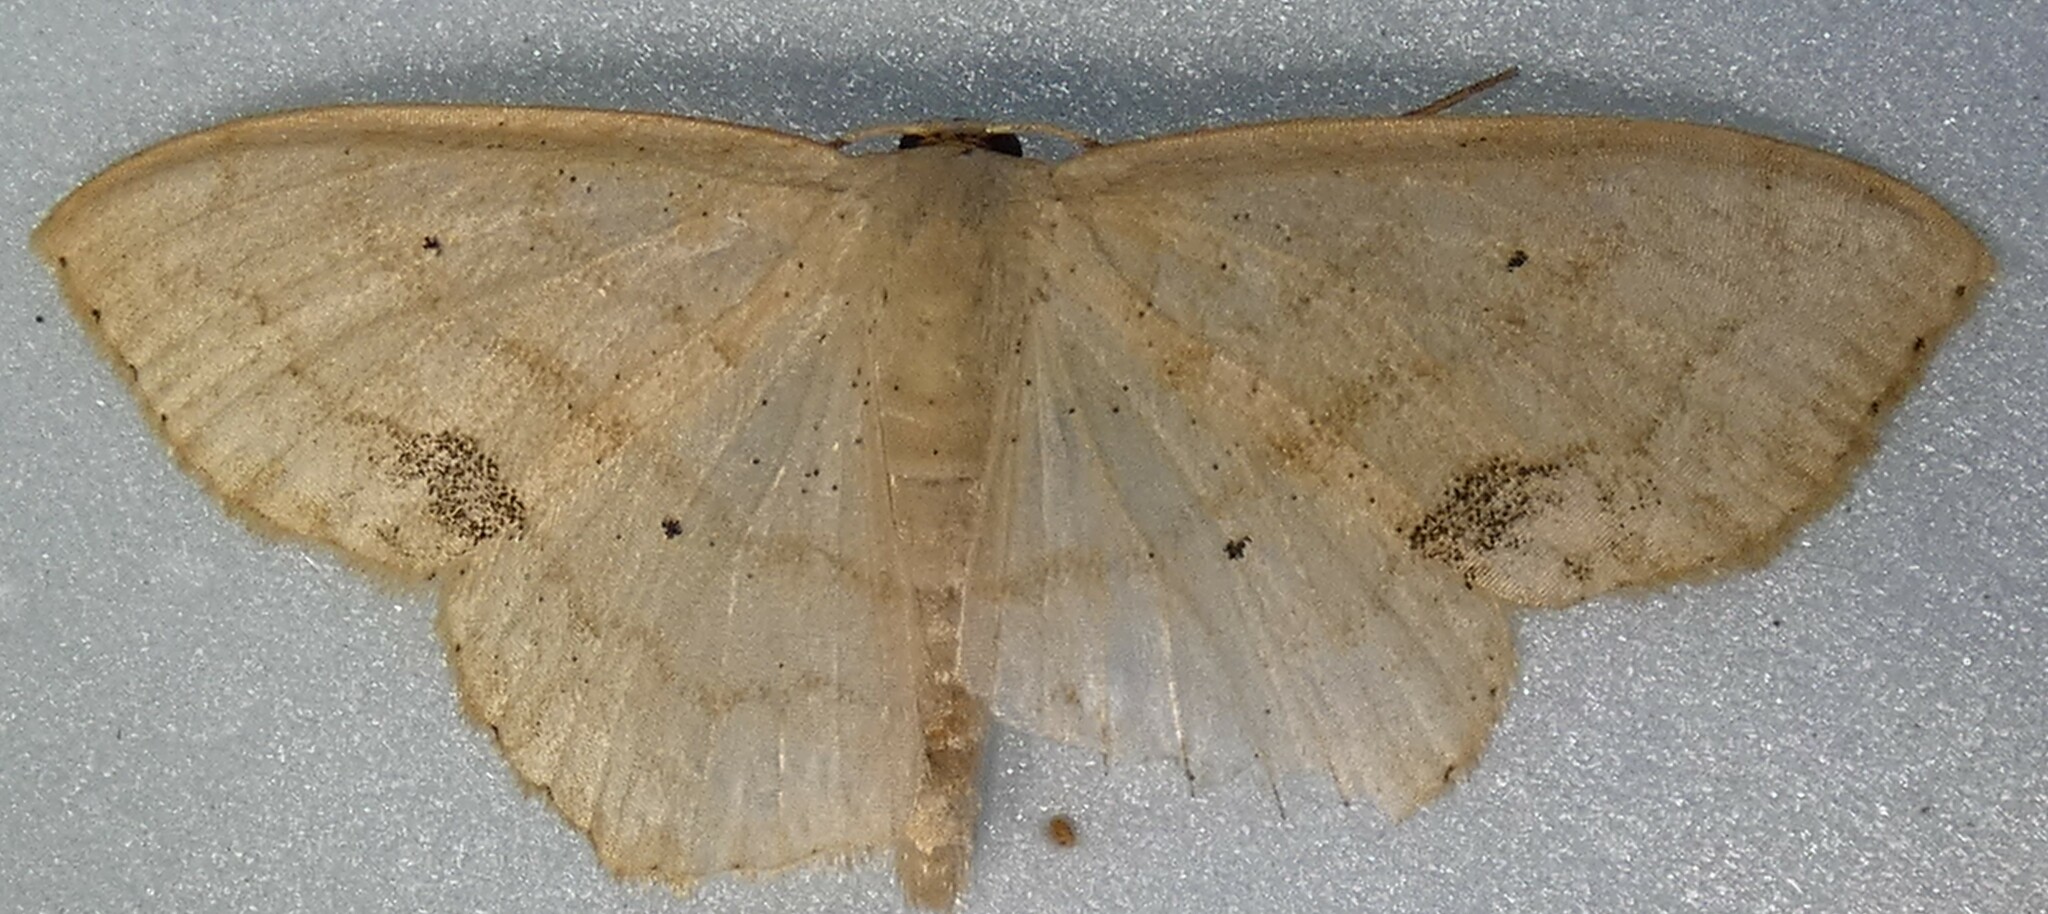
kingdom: Animalia
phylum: Arthropoda
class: Insecta
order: Lepidoptera
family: Geometridae
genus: Scopula
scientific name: Scopula limboundata
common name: Large lace border
